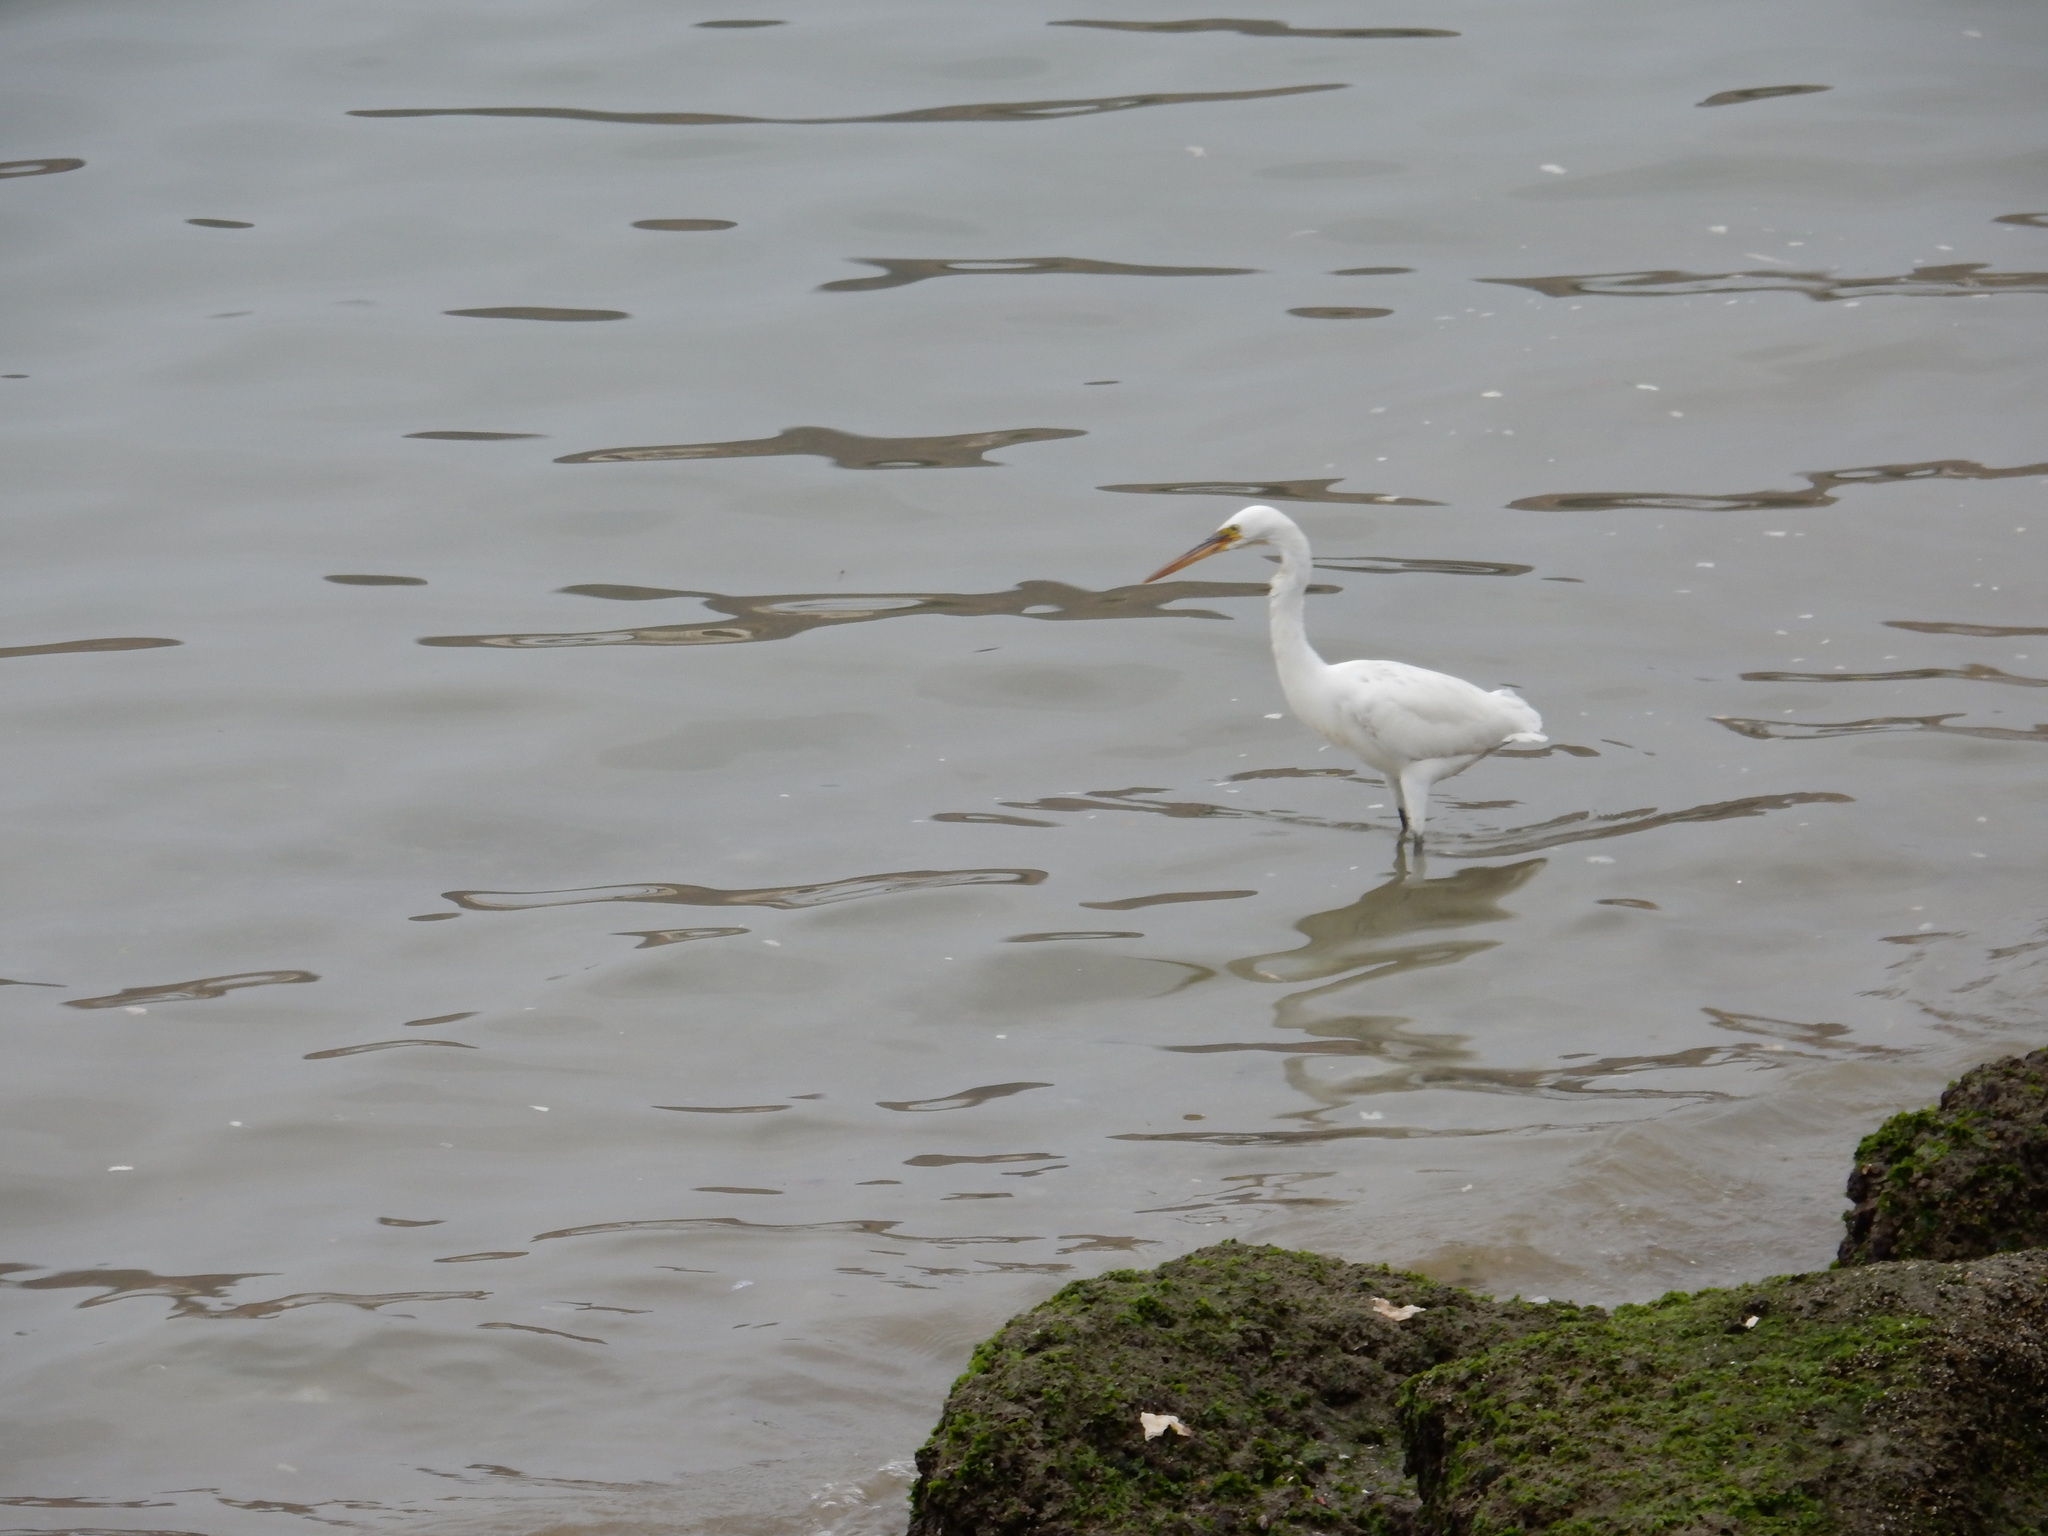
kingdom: Animalia
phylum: Chordata
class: Aves
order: Pelecaniformes
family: Ardeidae
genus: Egretta
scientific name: Egretta gularis
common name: Western reef-heron
